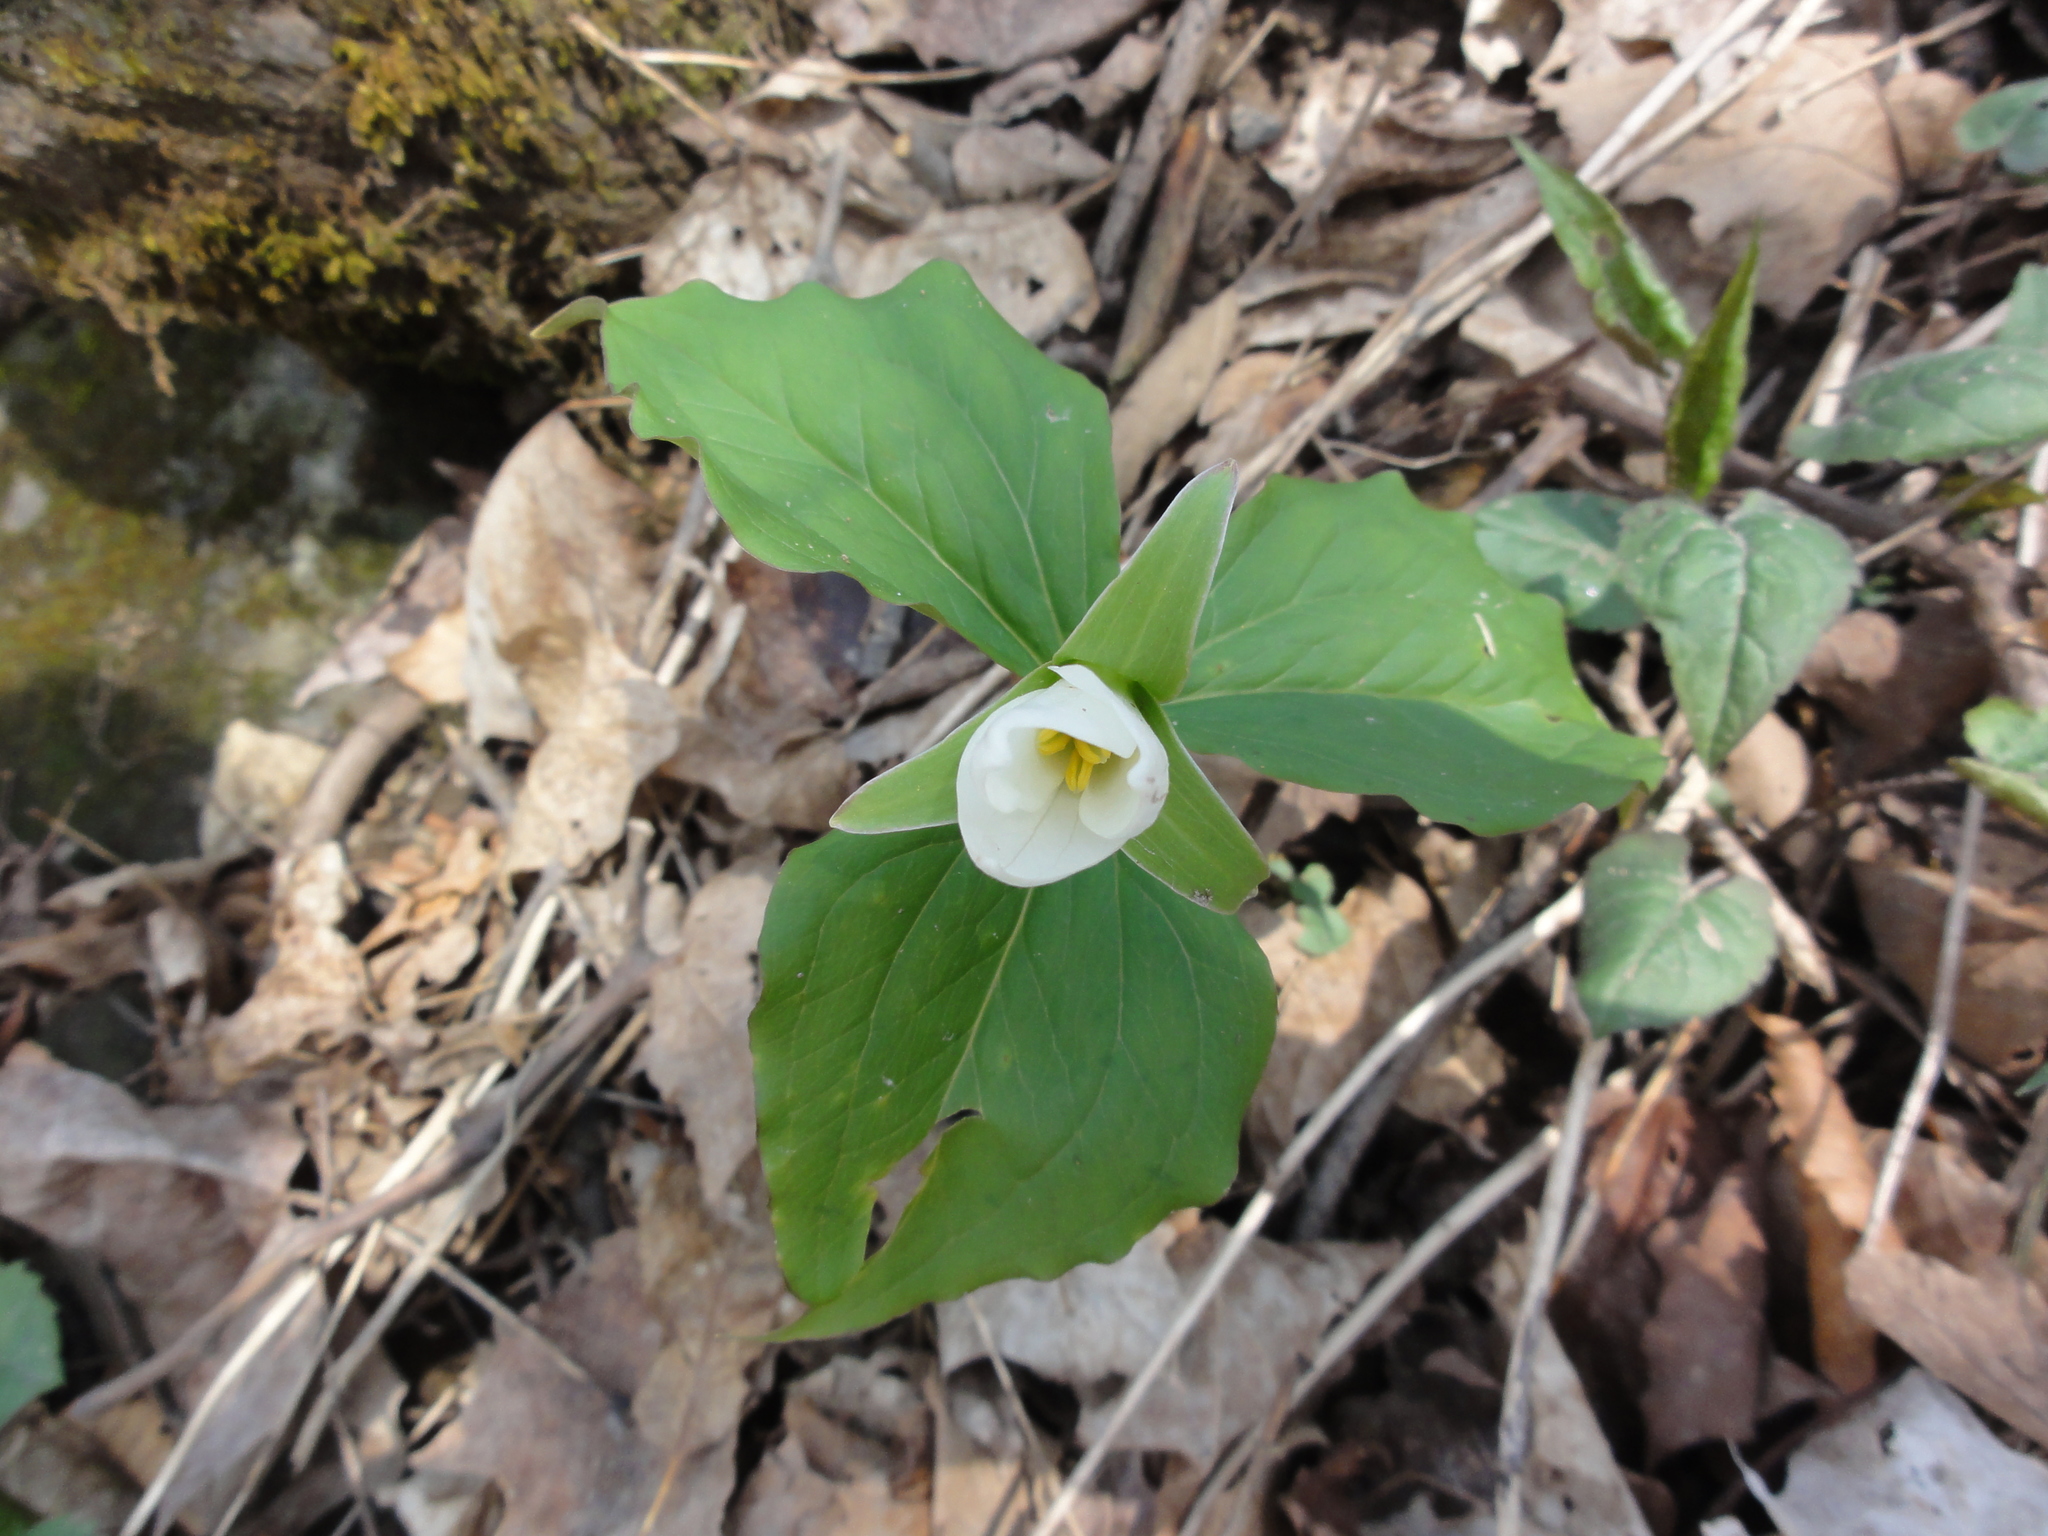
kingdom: Plantae
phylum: Tracheophyta
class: Liliopsida
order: Liliales
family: Melanthiaceae
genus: Trillium
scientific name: Trillium grandiflorum
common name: Great white trillium
